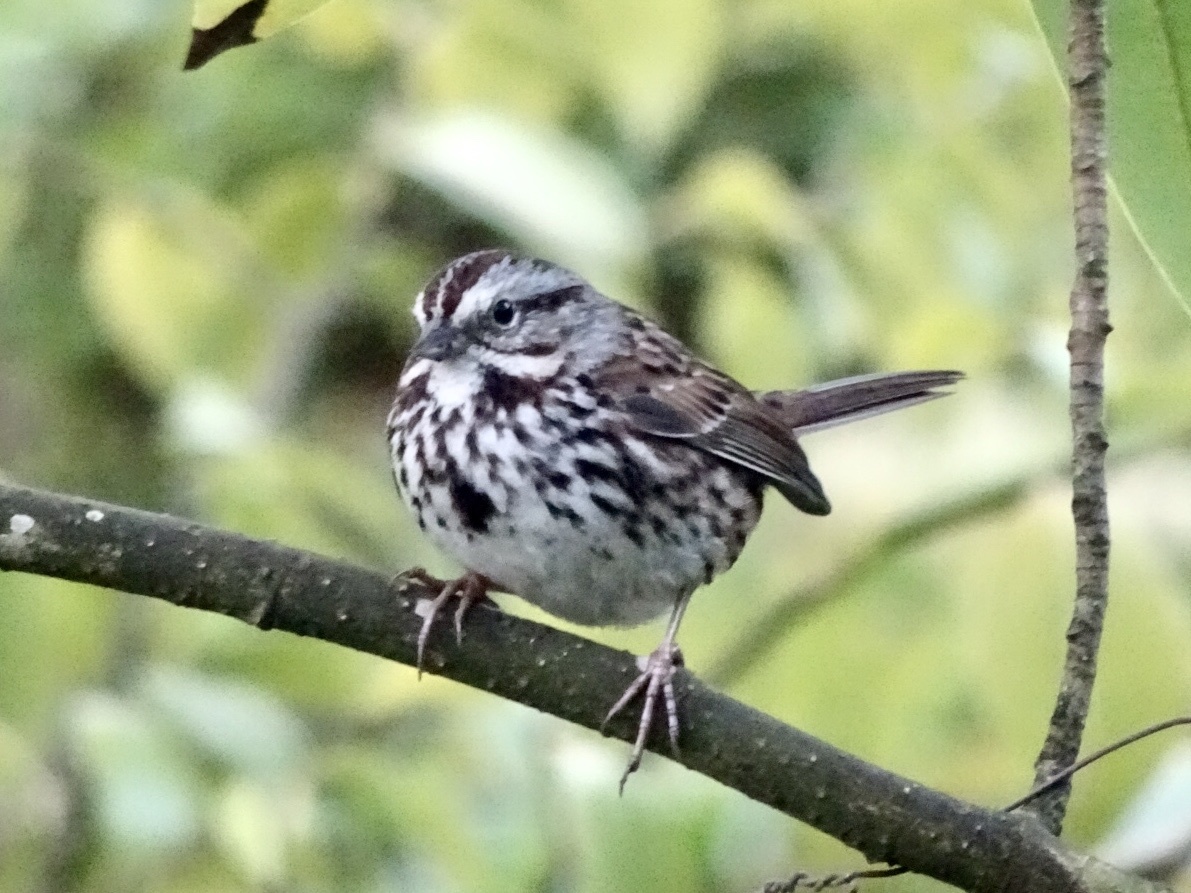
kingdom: Animalia
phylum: Chordata
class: Aves
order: Passeriformes
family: Passerellidae
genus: Melospiza
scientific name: Melospiza melodia
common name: Song sparrow
